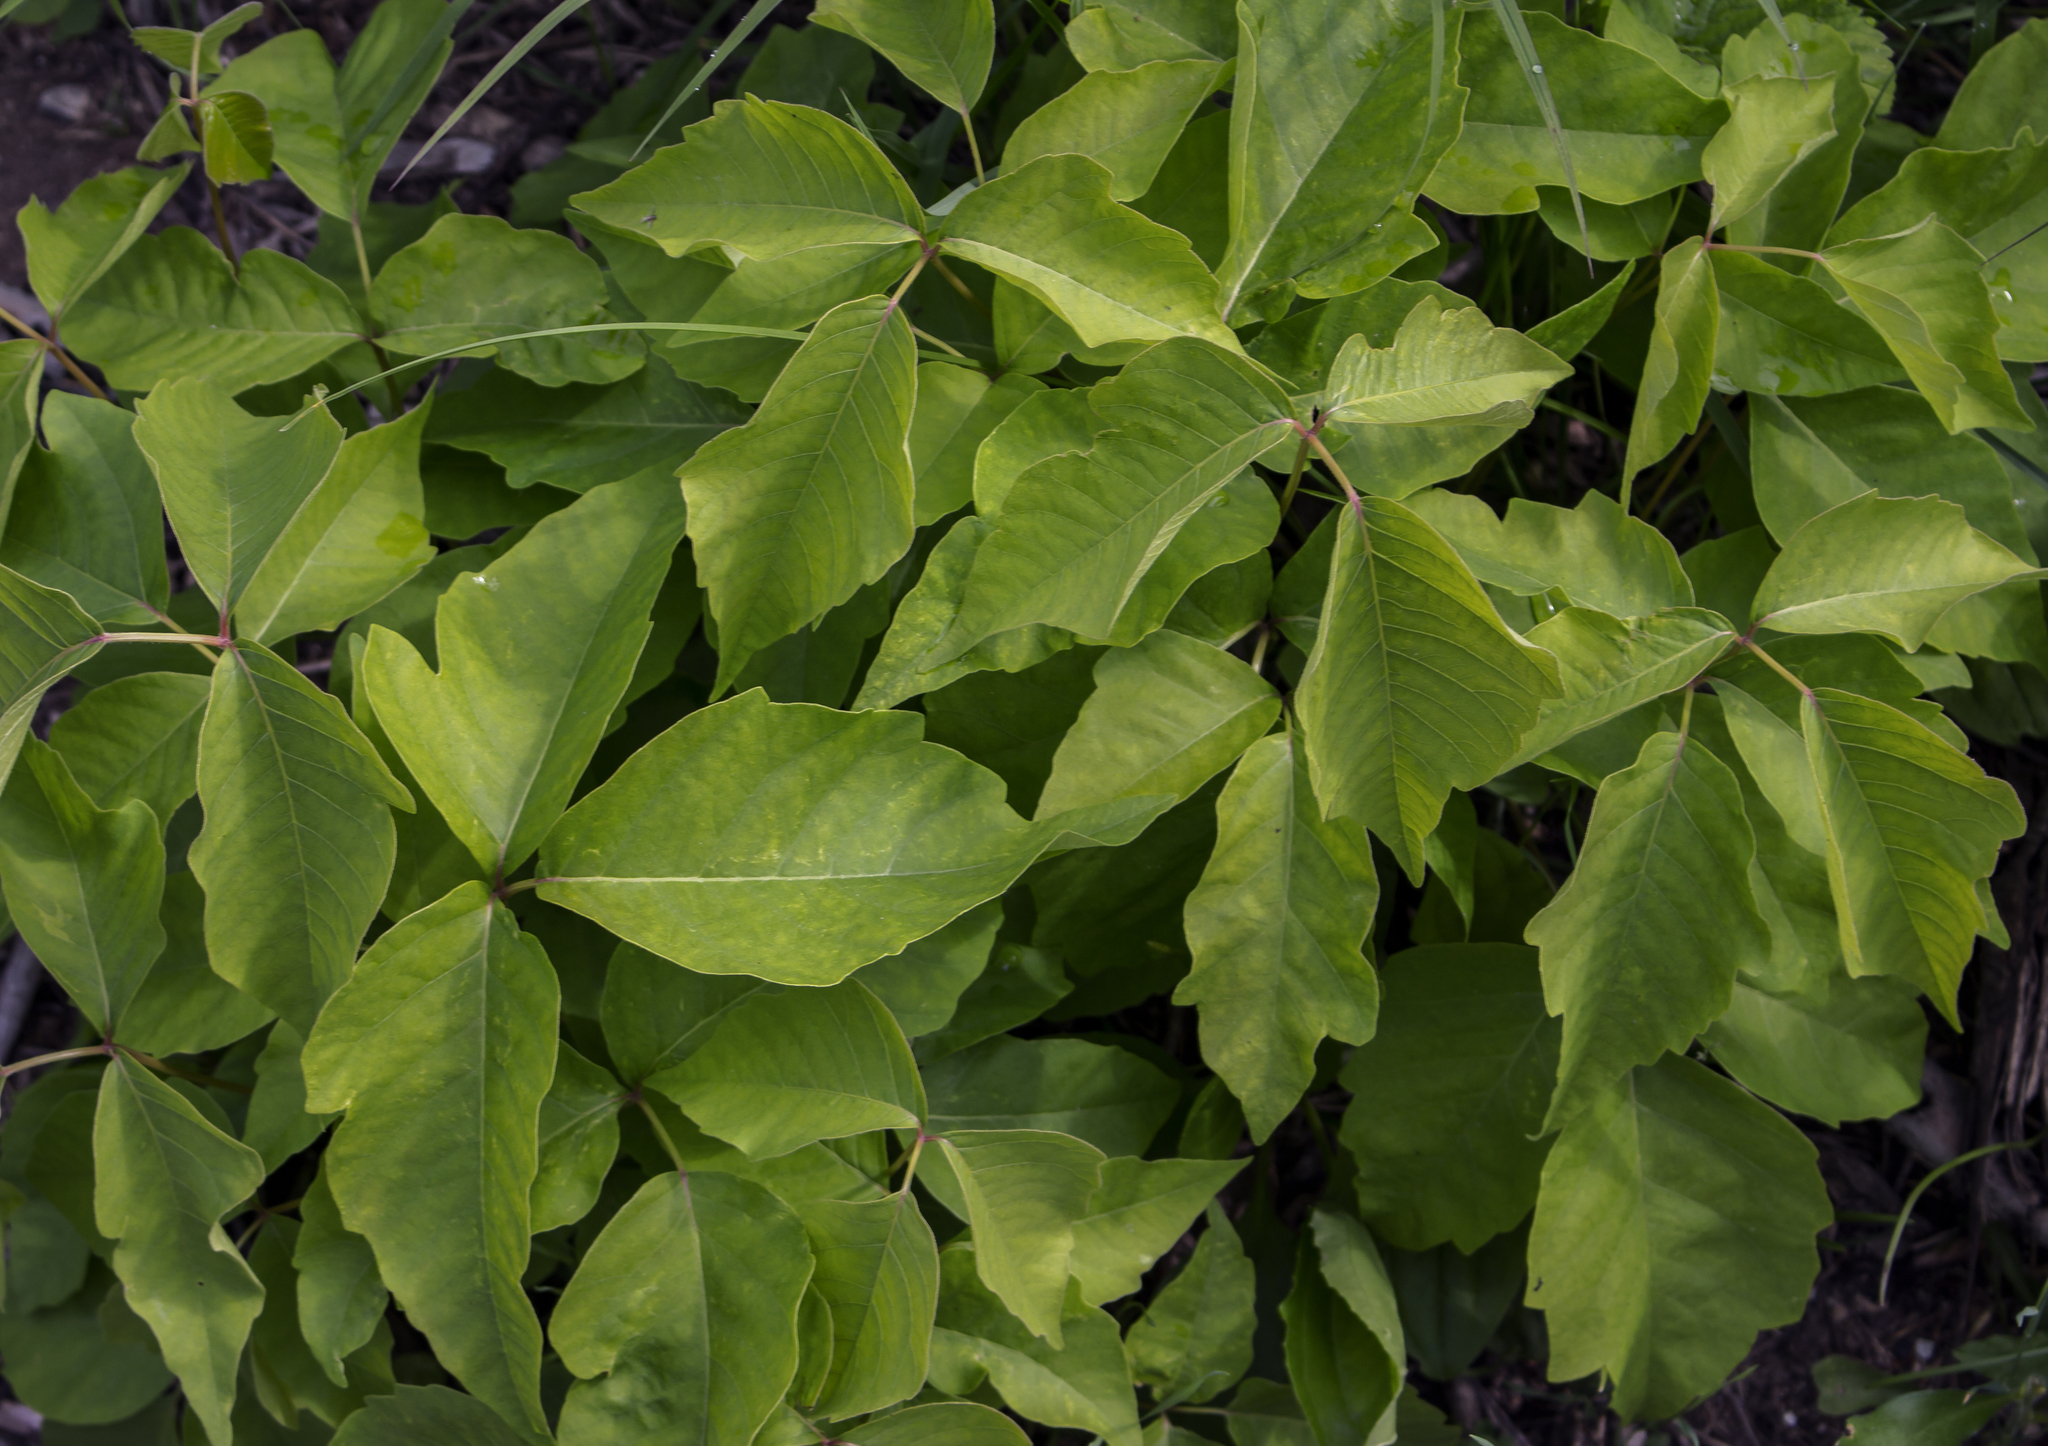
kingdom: Plantae
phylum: Tracheophyta
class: Magnoliopsida
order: Sapindales
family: Anacardiaceae
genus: Toxicodendron
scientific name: Toxicodendron rydbergii
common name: Rydberg's poison-ivy
